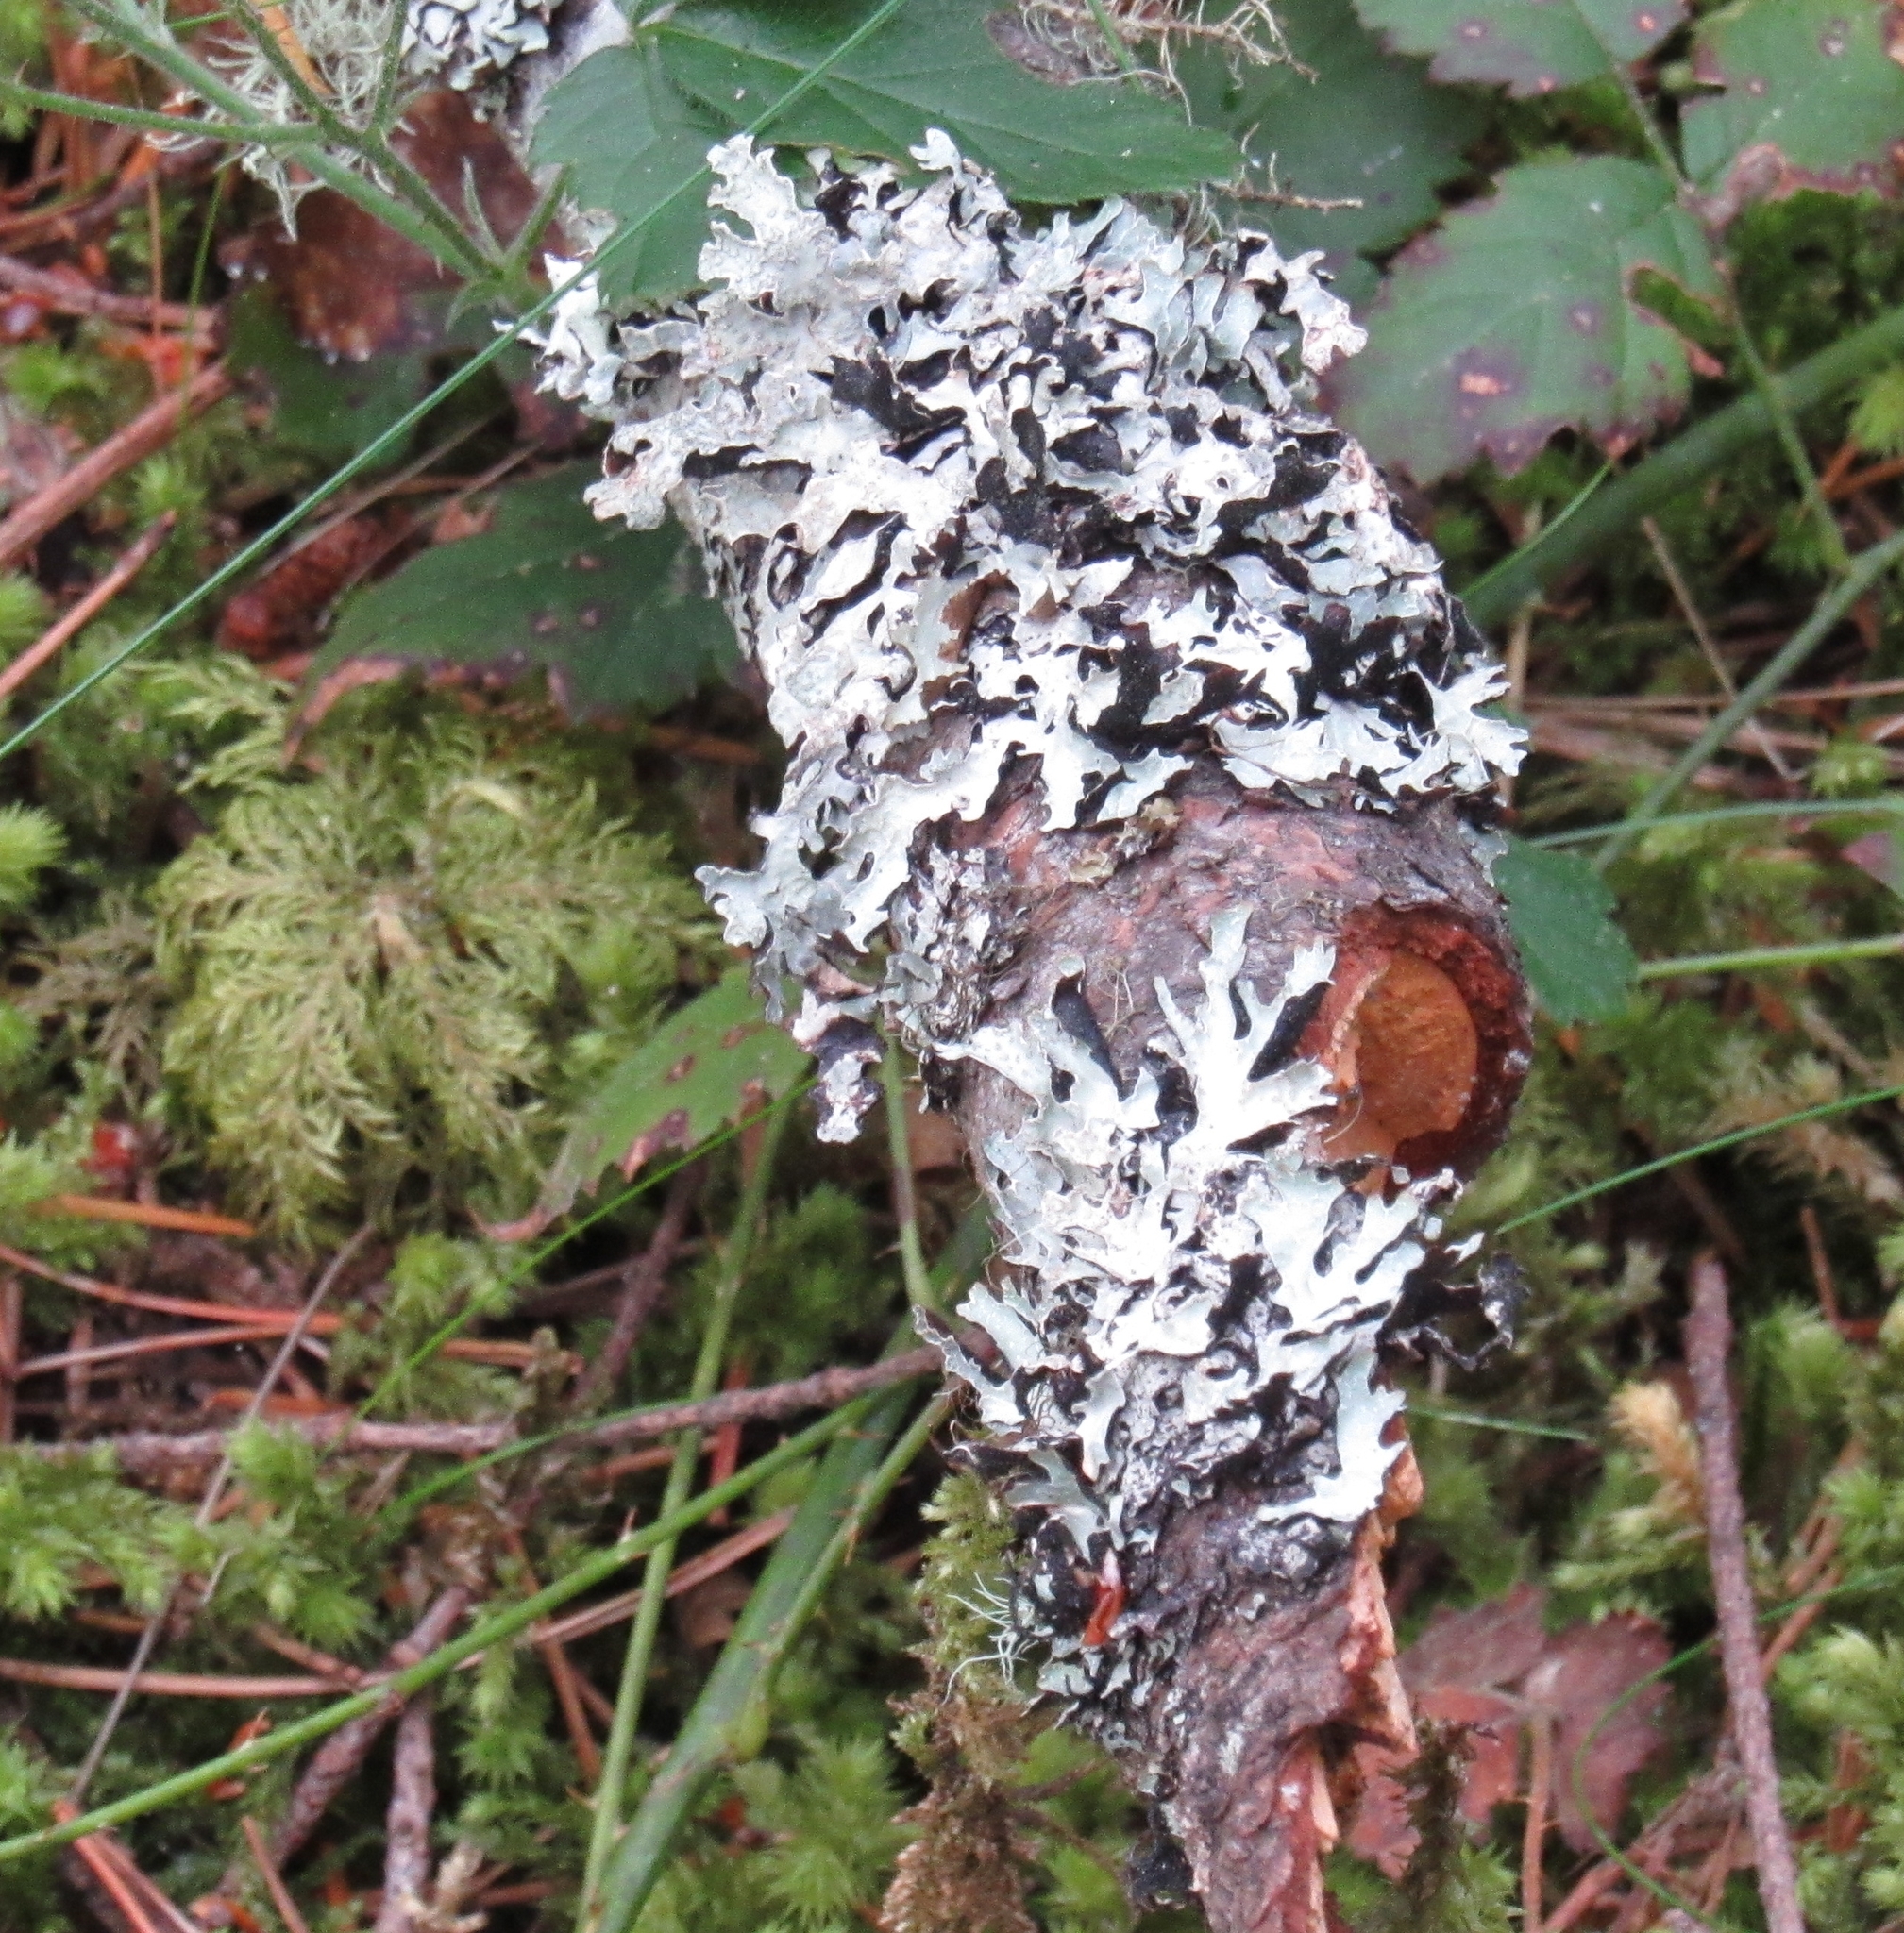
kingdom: Fungi
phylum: Ascomycota
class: Lecanoromycetes
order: Lecanorales
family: Parmeliaceae
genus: Parmelia
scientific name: Parmelia sulcata
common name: Netted shield lichen
